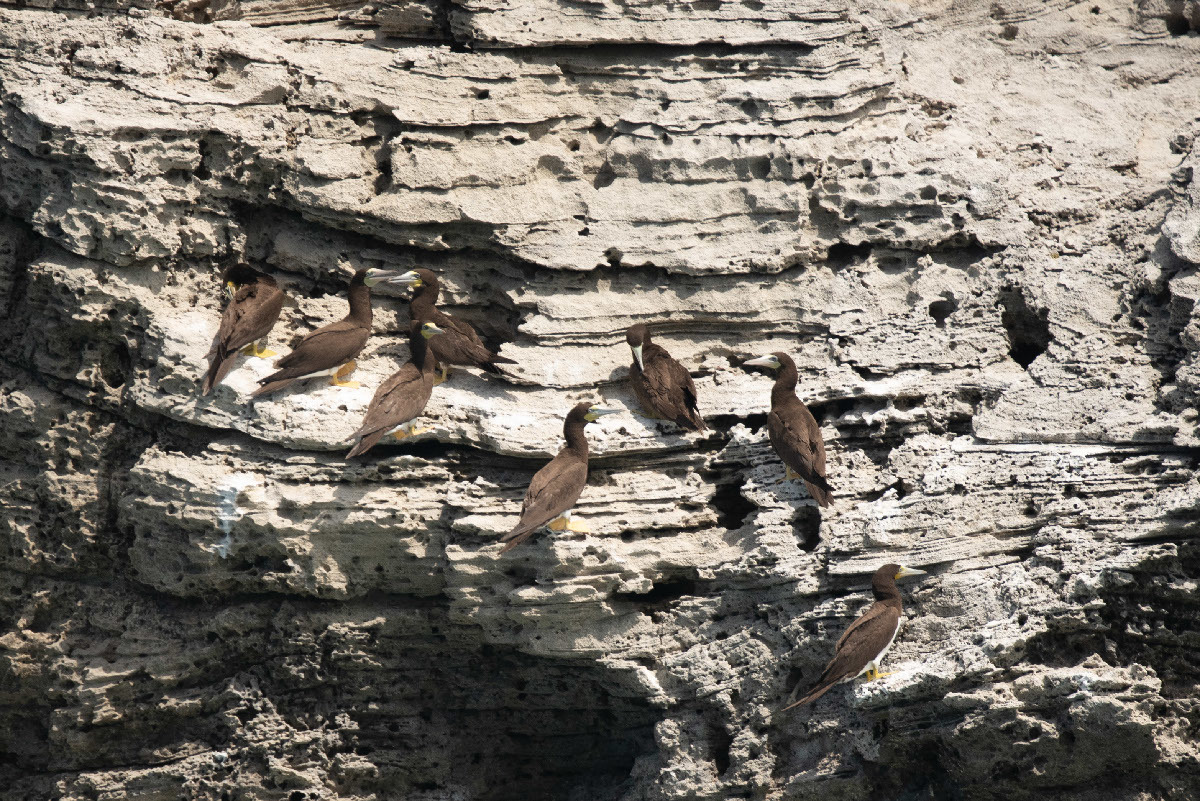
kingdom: Animalia
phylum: Chordata
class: Aves
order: Suliformes
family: Sulidae
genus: Sula
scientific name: Sula leucogaster
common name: Brown booby
